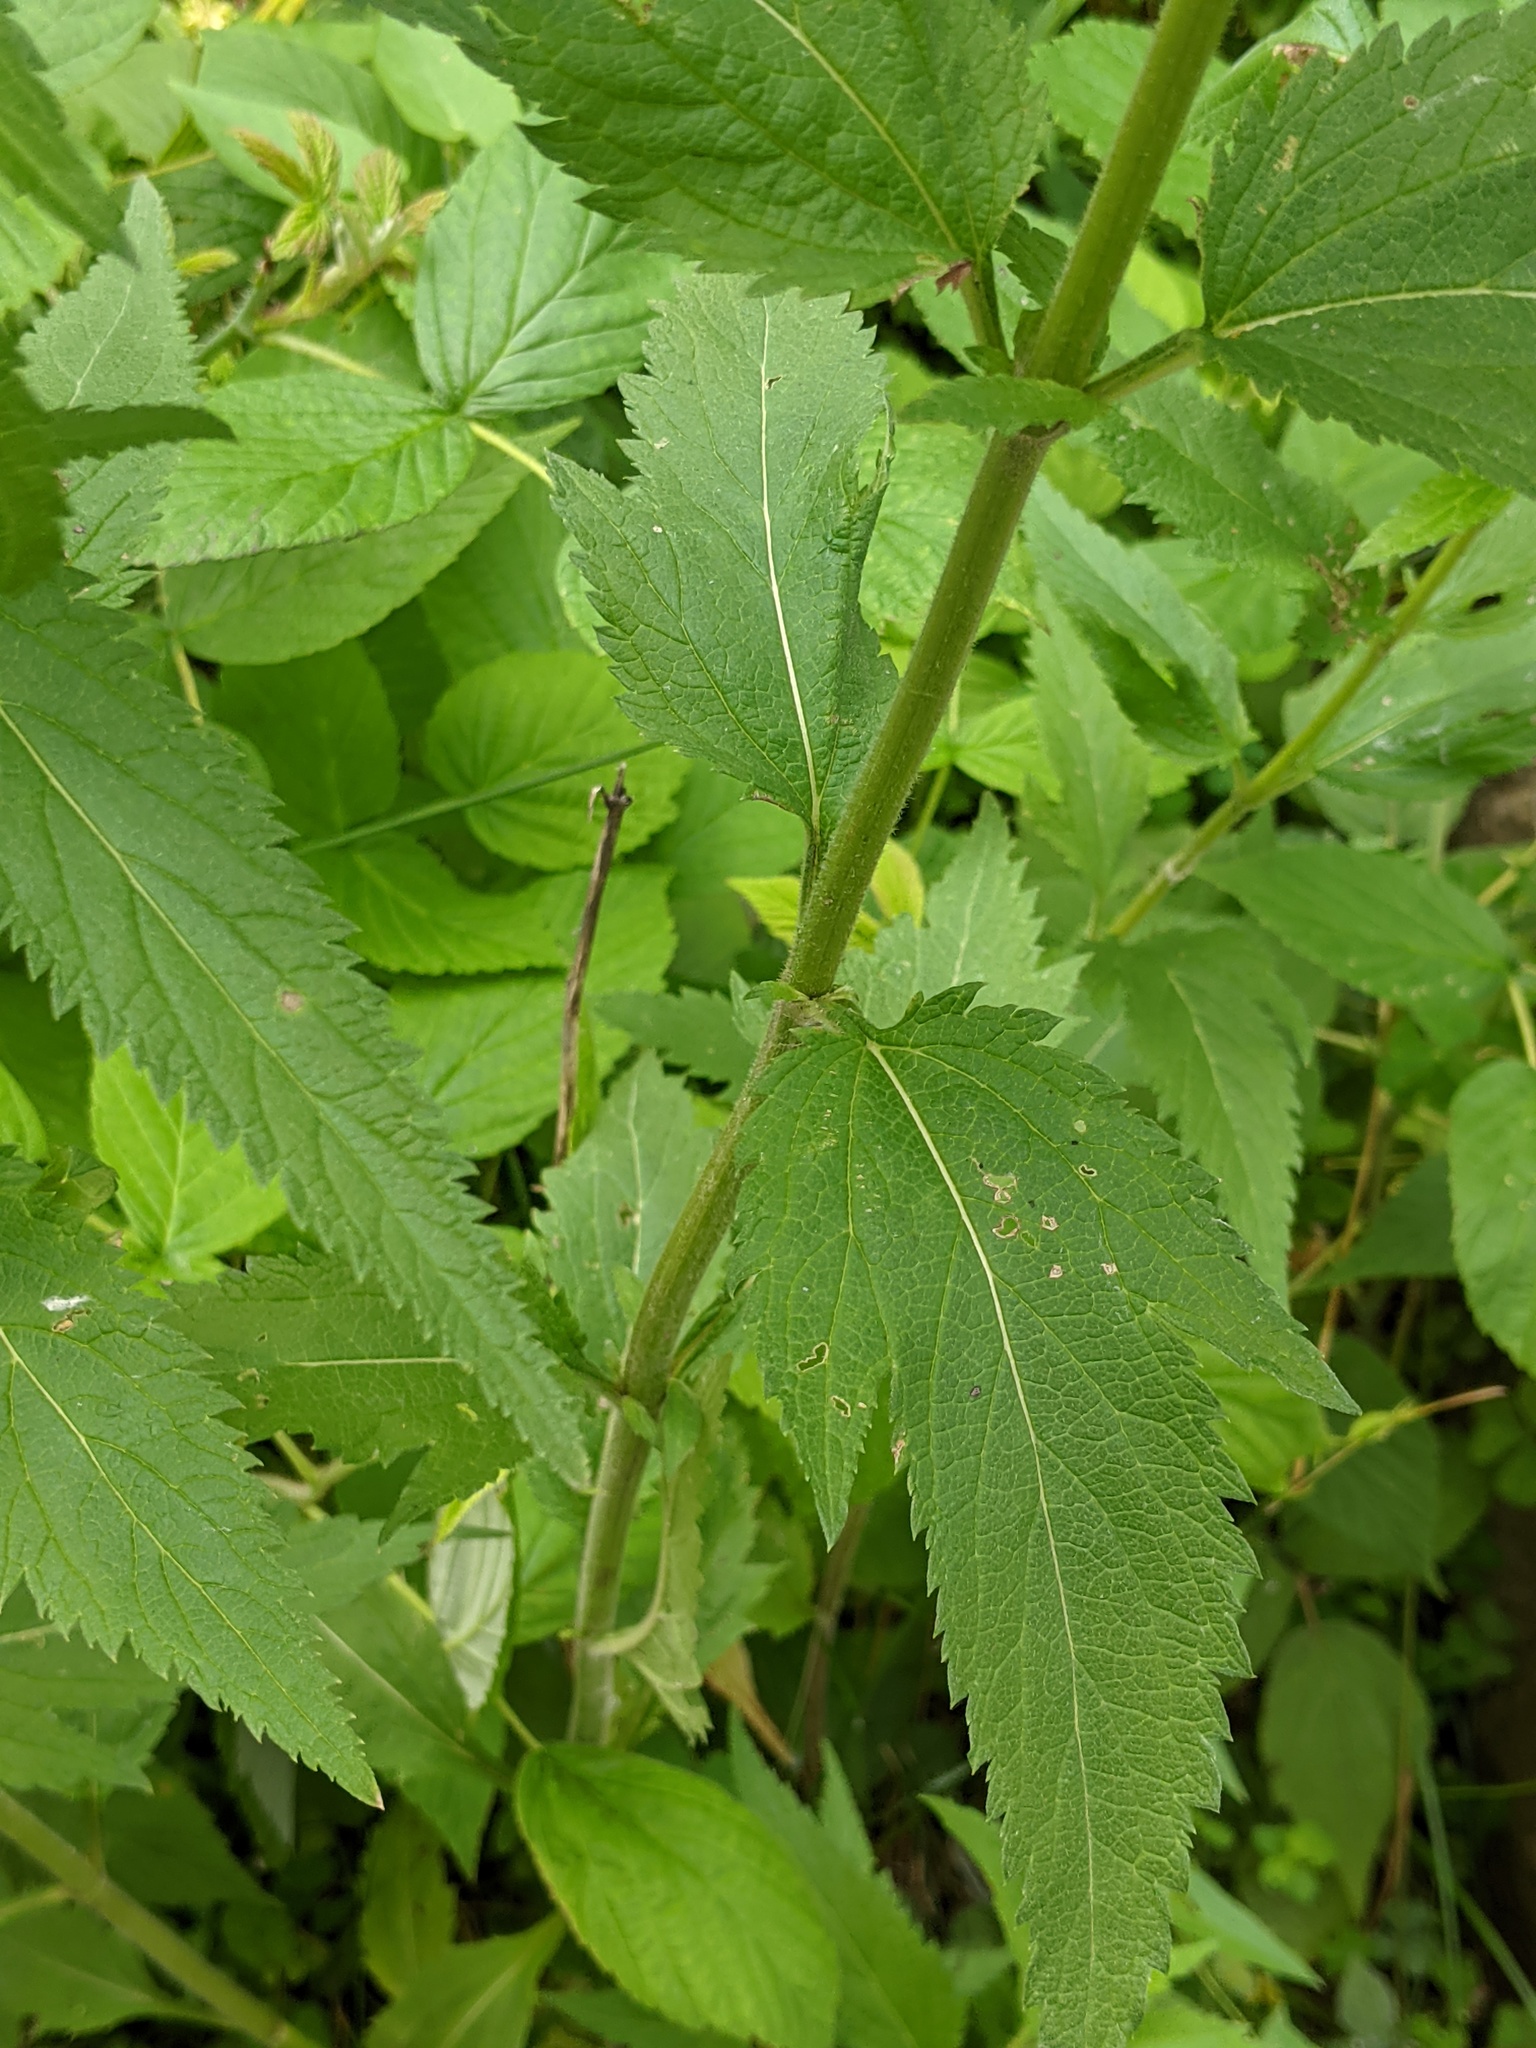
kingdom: Plantae
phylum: Tracheophyta
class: Magnoliopsida
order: Lamiales
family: Verbenaceae
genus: Verbena
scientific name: Verbena hastata
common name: American blue vervain
